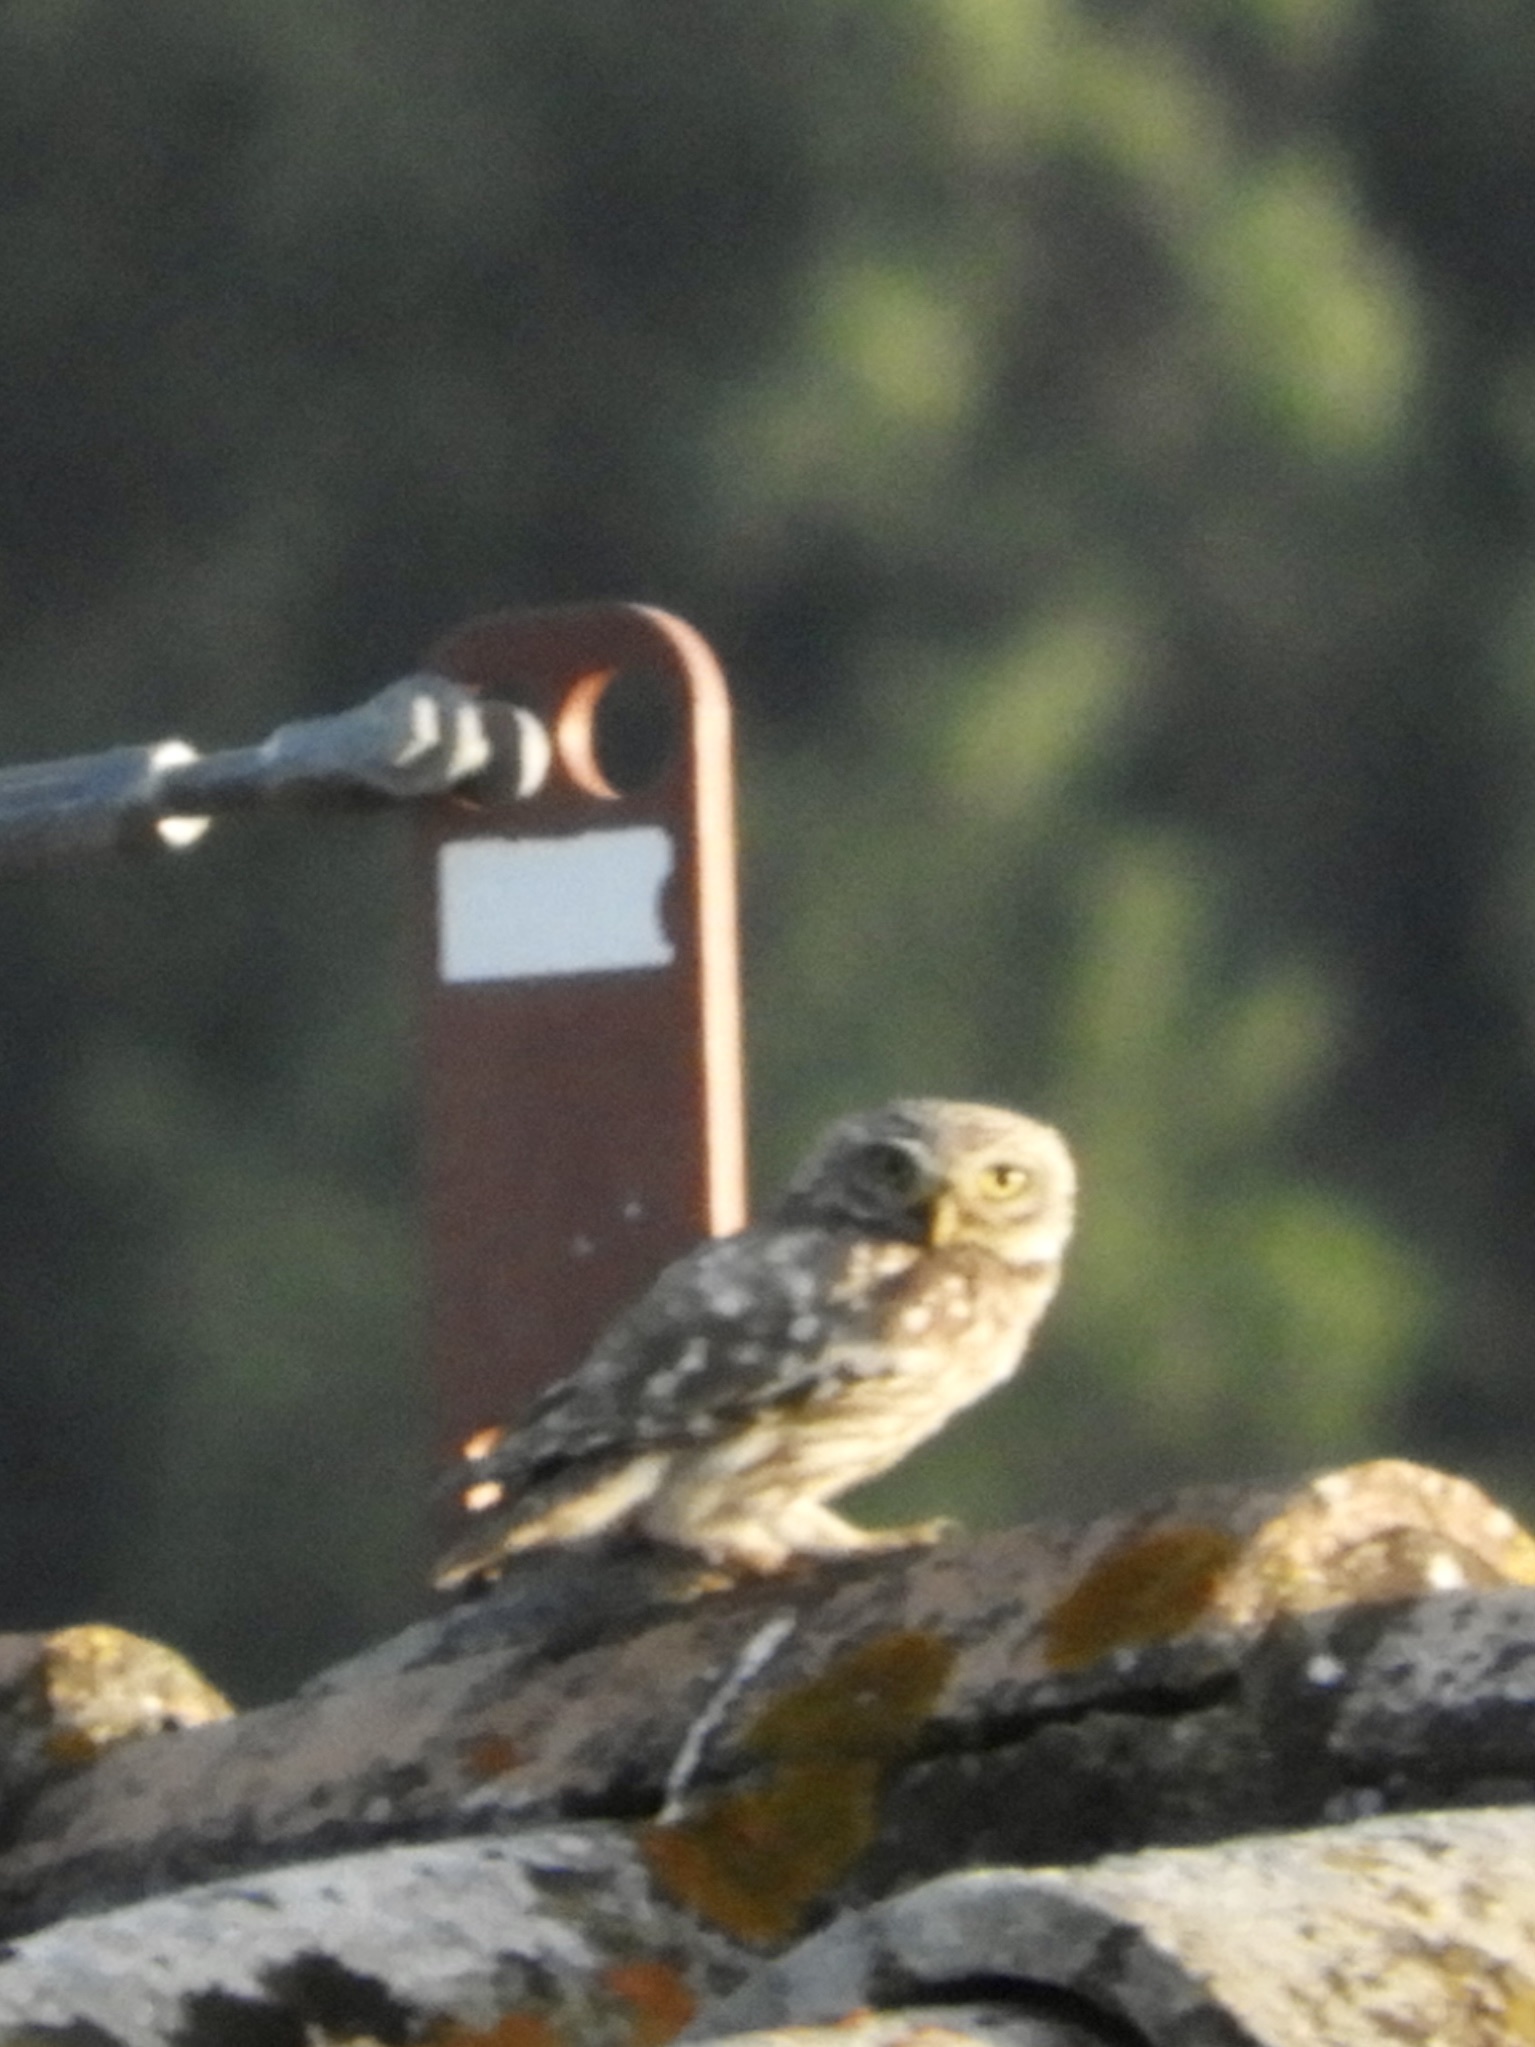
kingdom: Animalia
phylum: Chordata
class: Aves
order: Strigiformes
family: Strigidae
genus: Athene
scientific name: Athene noctua
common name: Little owl
